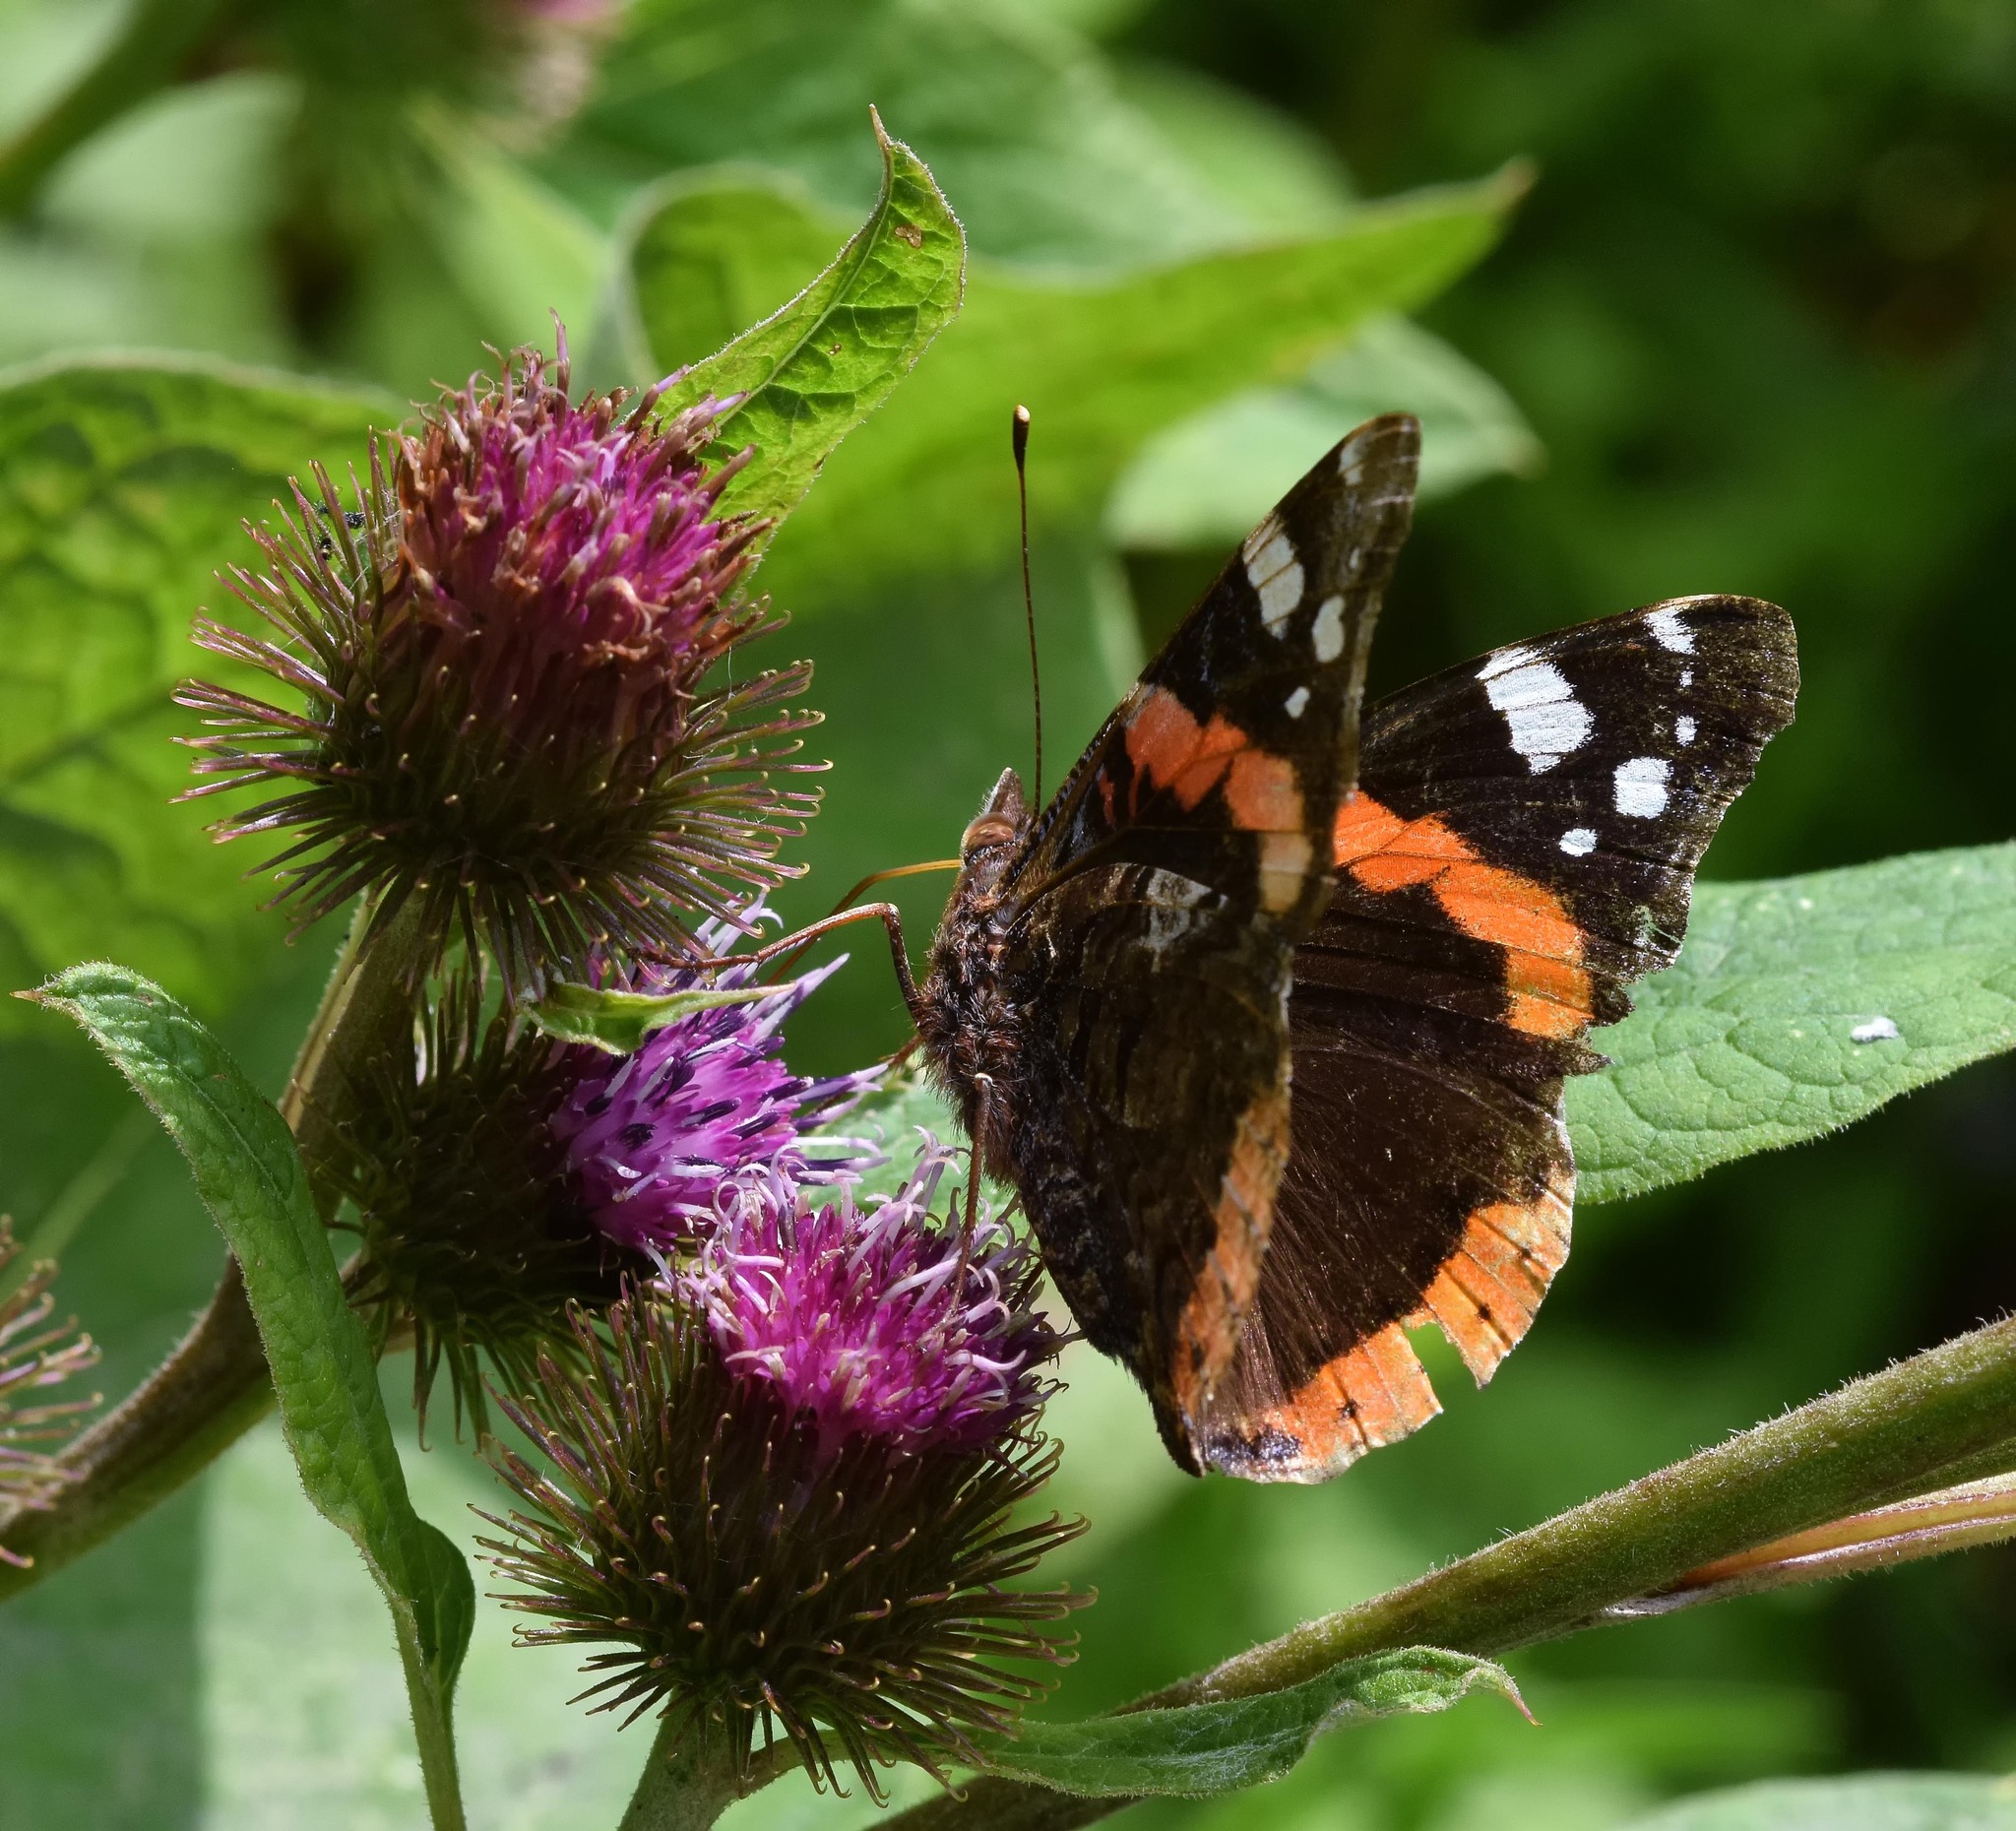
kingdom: Animalia
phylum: Arthropoda
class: Insecta
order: Lepidoptera
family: Nymphalidae
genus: Vanessa
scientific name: Vanessa atalanta
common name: Red admiral
